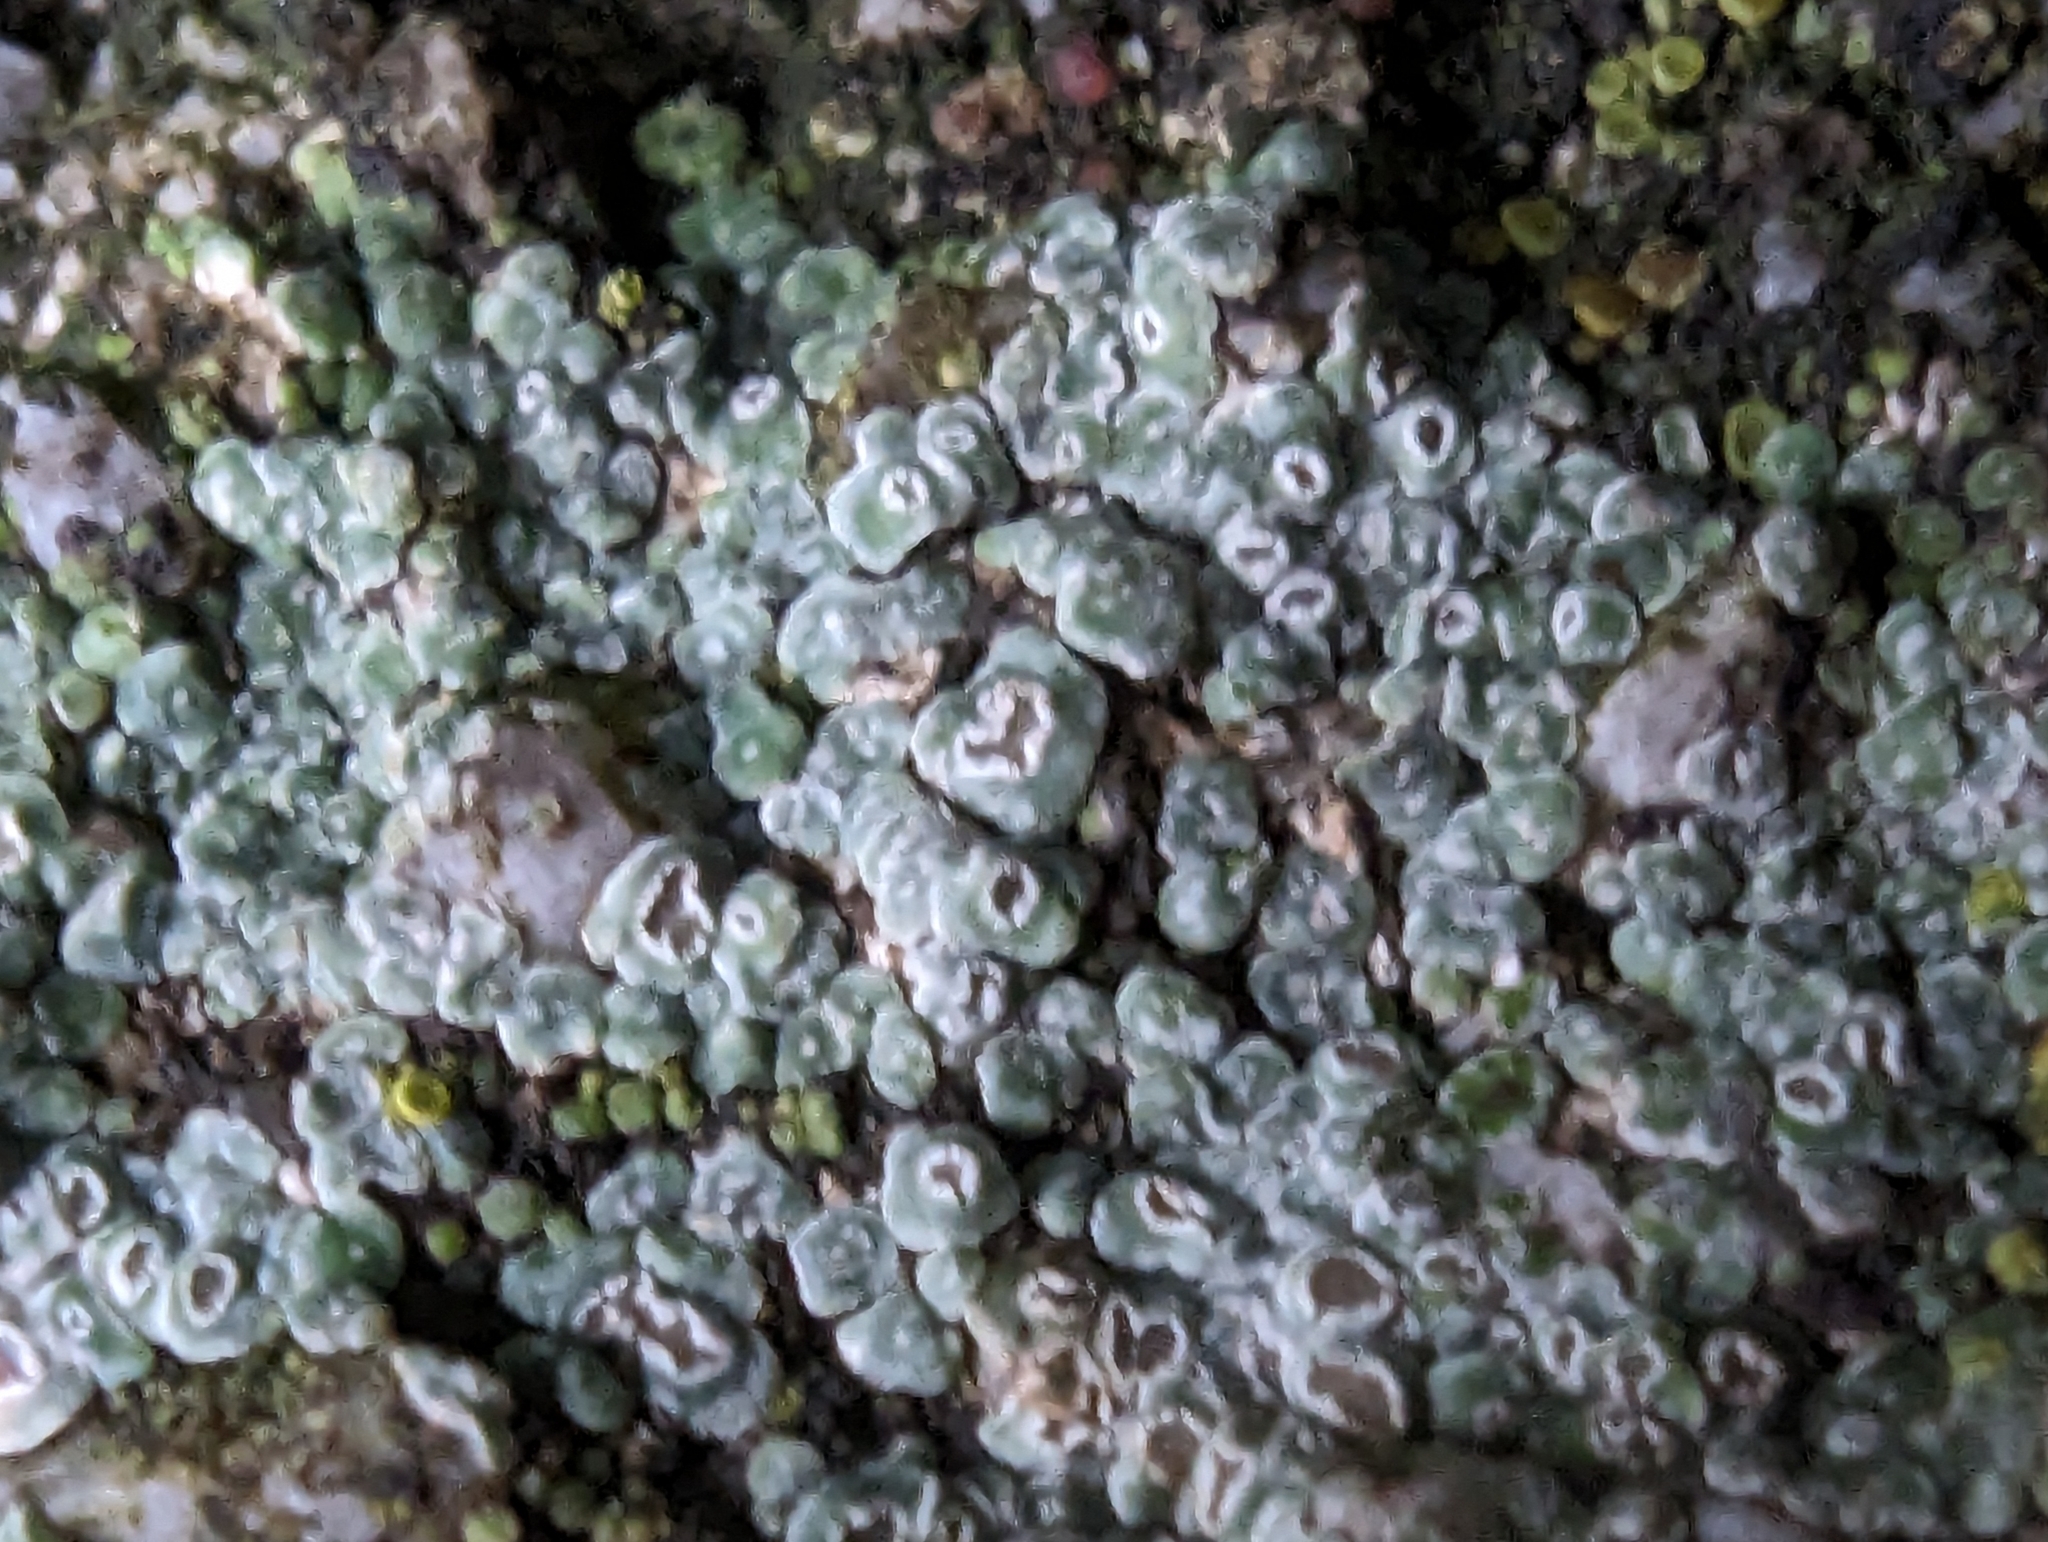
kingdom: Fungi
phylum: Ascomycota
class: Lecanoromycetes
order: Pertusariales
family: Megasporaceae
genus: Circinaria
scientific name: Circinaria contorta
